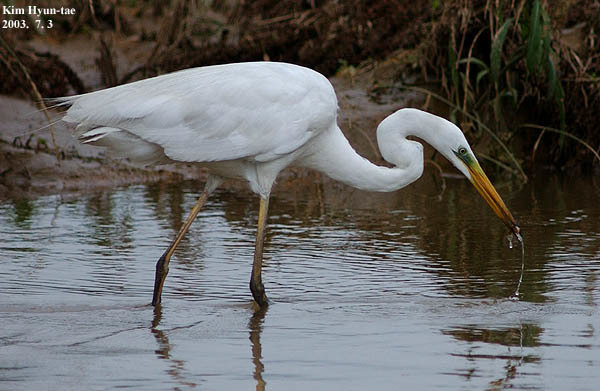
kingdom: Animalia
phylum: Chordata
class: Aves
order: Pelecaniformes
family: Ardeidae
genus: Ardea
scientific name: Ardea alba
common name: Great egret
